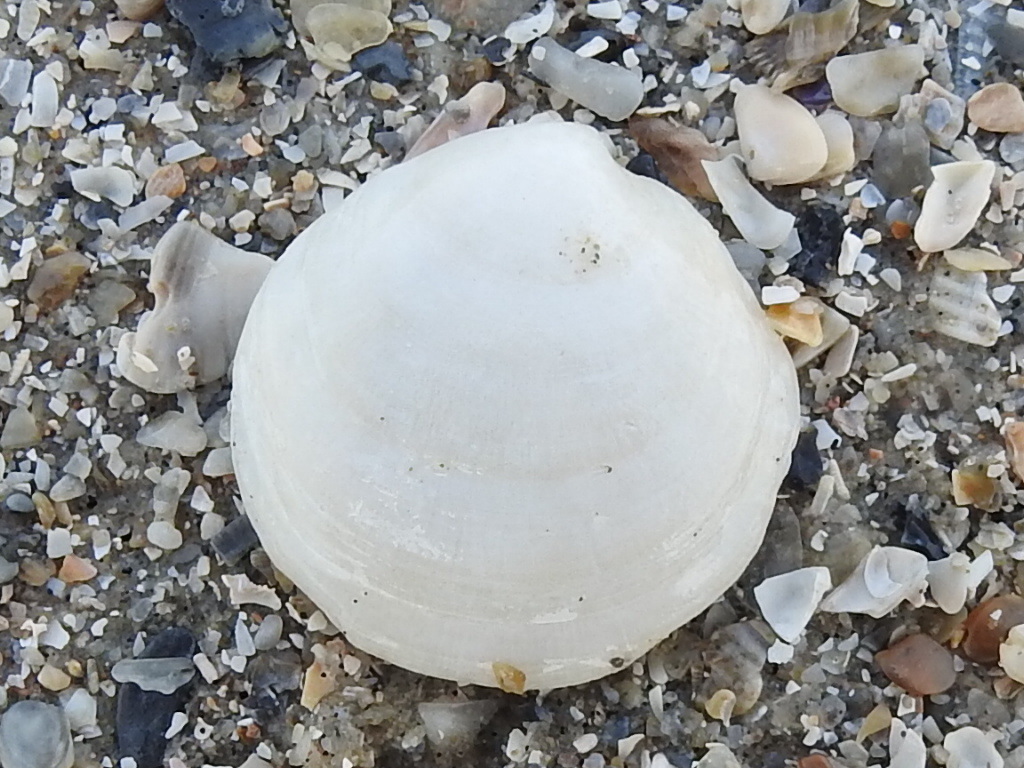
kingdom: Animalia
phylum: Mollusca
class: Bivalvia
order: Lucinida
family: Lucinidae
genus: Callucina
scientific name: Callucina keenae
